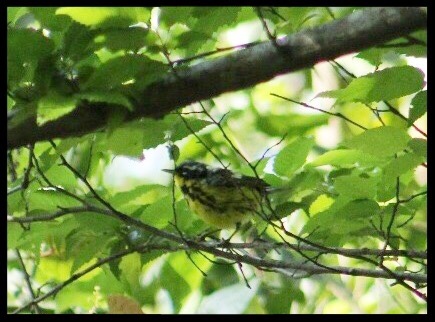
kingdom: Animalia
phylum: Chordata
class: Aves
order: Passeriformes
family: Parulidae
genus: Setophaga
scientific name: Setophaga magnolia
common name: Magnolia warbler
